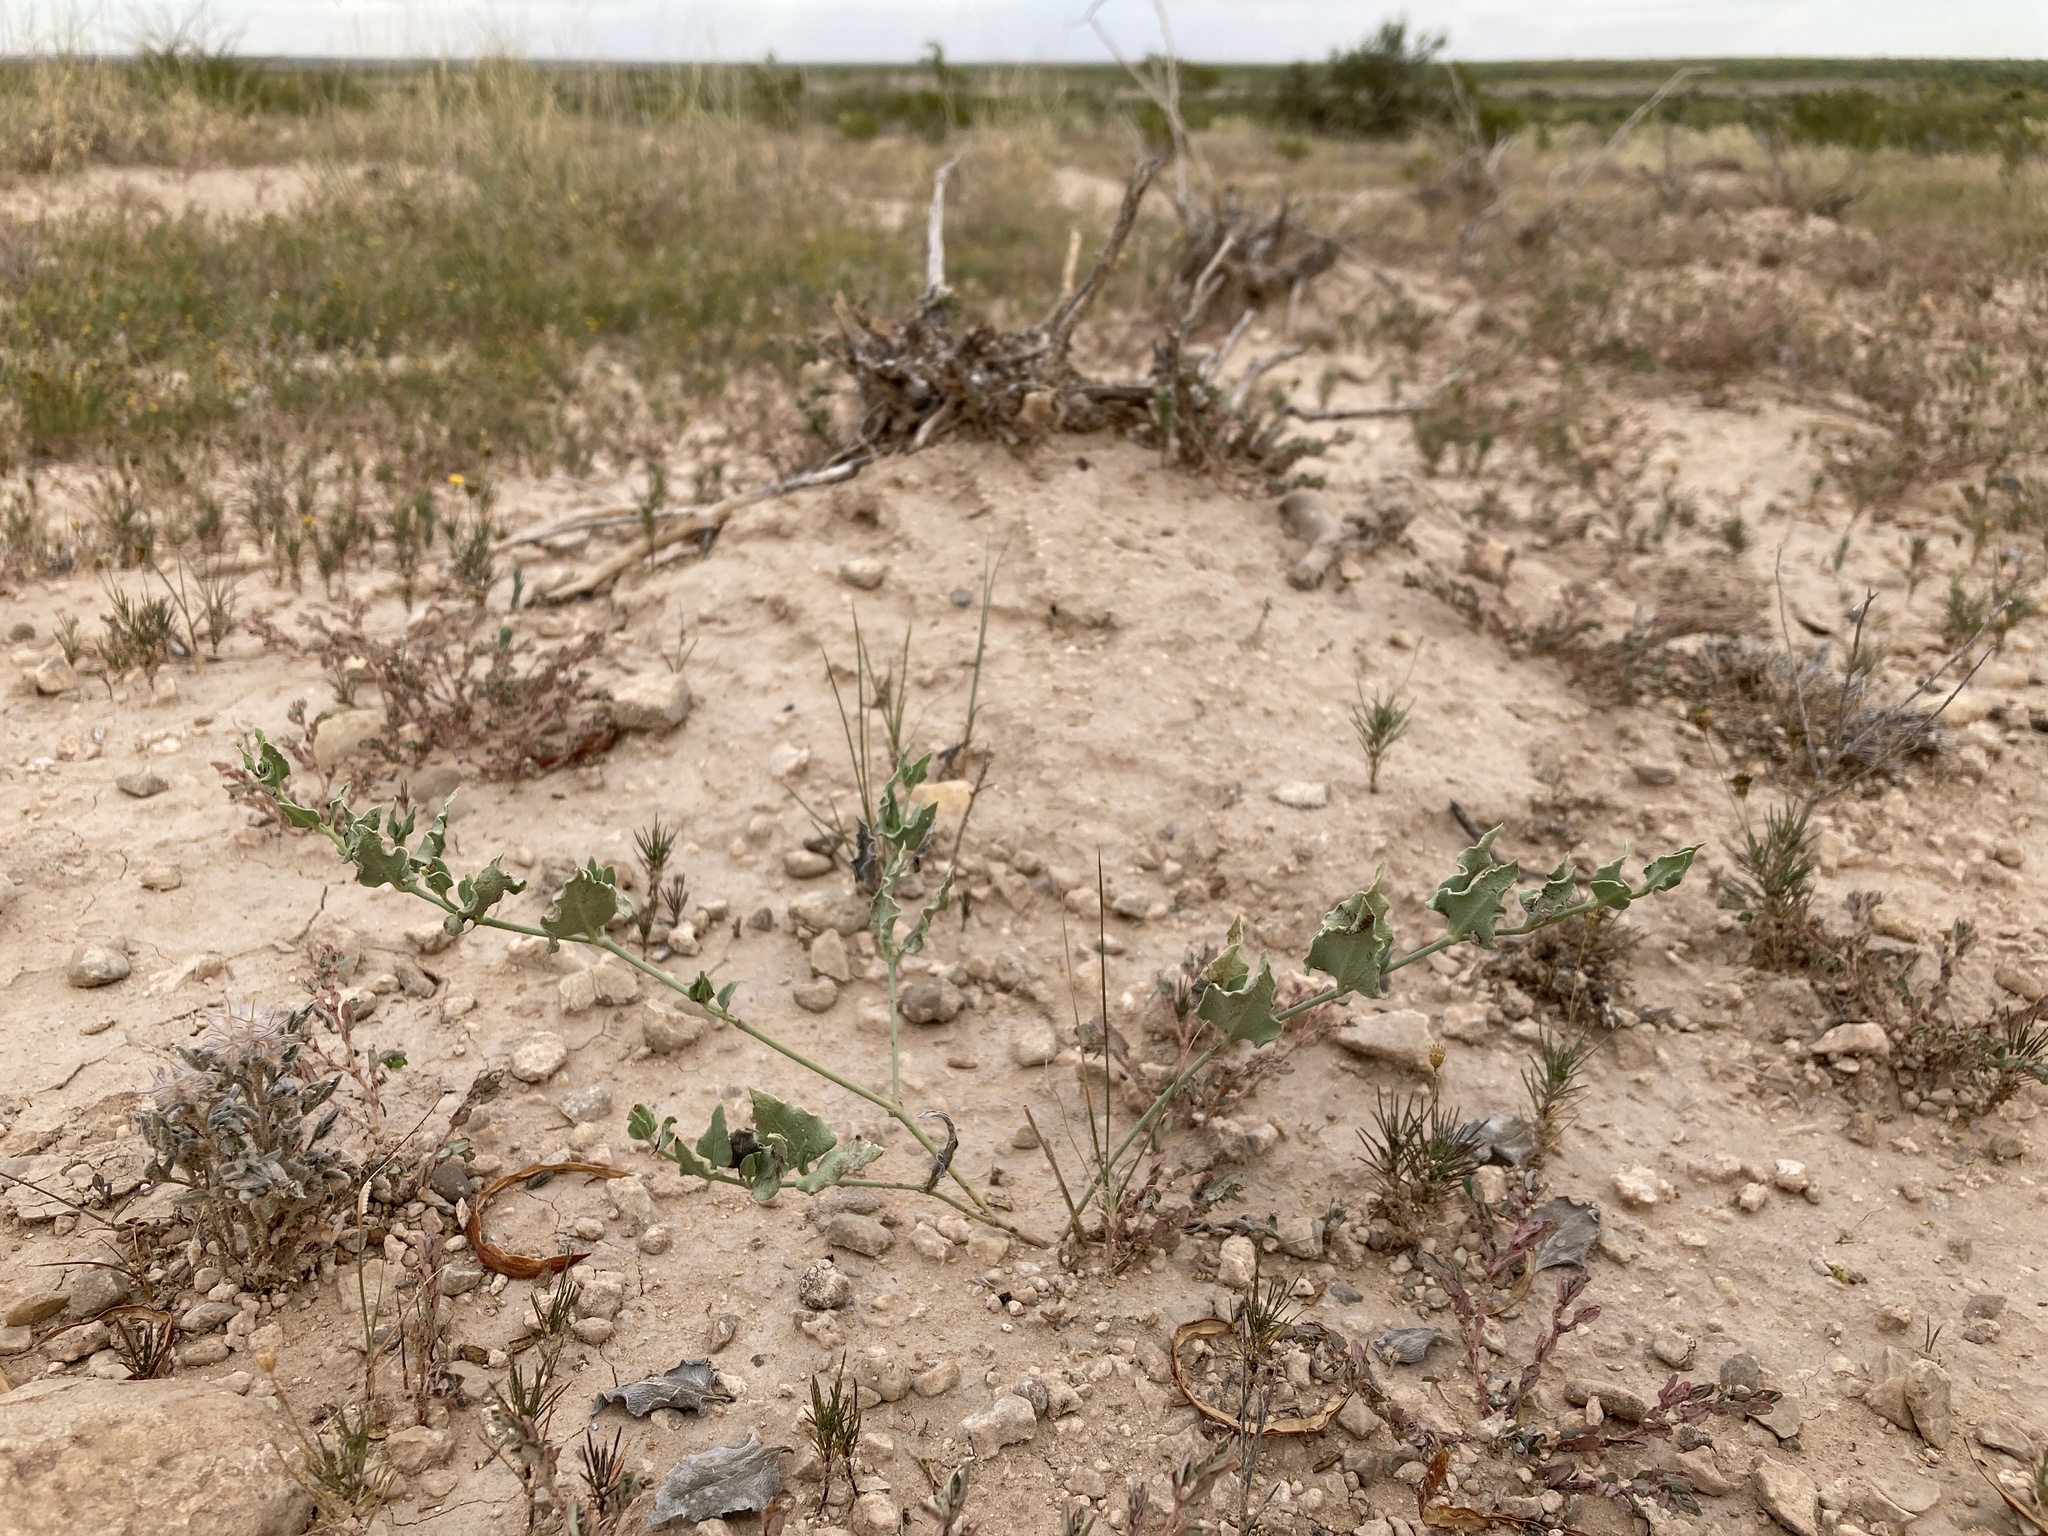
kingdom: Plantae
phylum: Tracheophyta
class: Magnoliopsida
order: Caryophyllales
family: Nyctaginaceae
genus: Acleisanthes
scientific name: Acleisanthes longiflora
